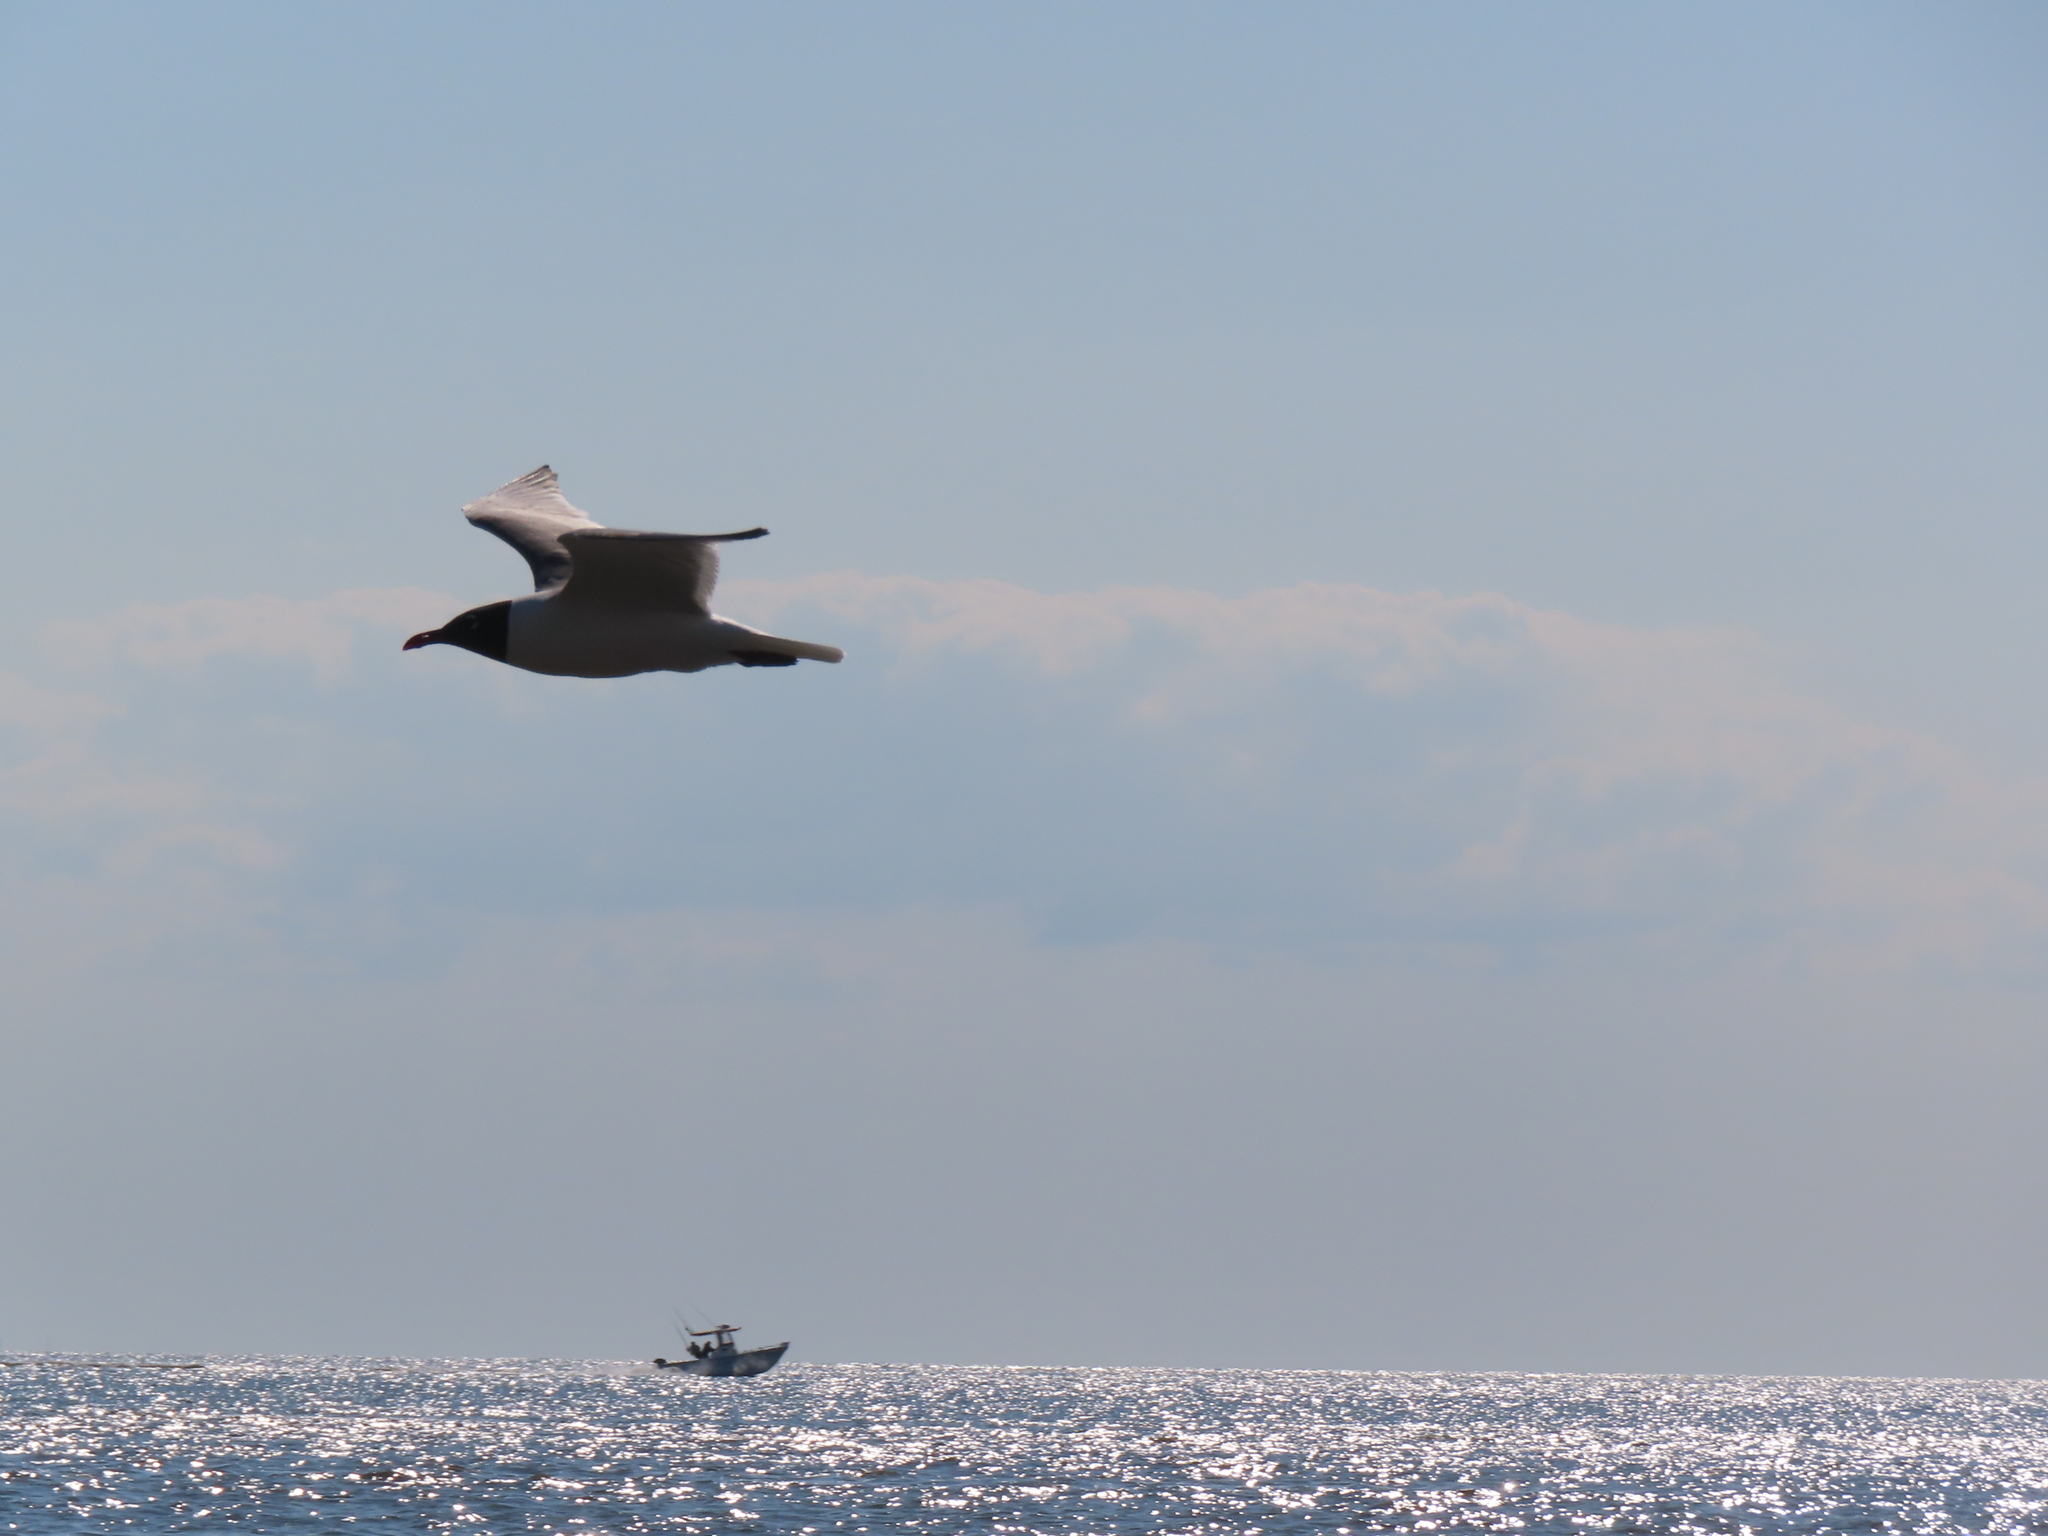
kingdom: Animalia
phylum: Chordata
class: Aves
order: Charadriiformes
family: Laridae
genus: Leucophaeus
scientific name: Leucophaeus atricilla
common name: Laughing gull
